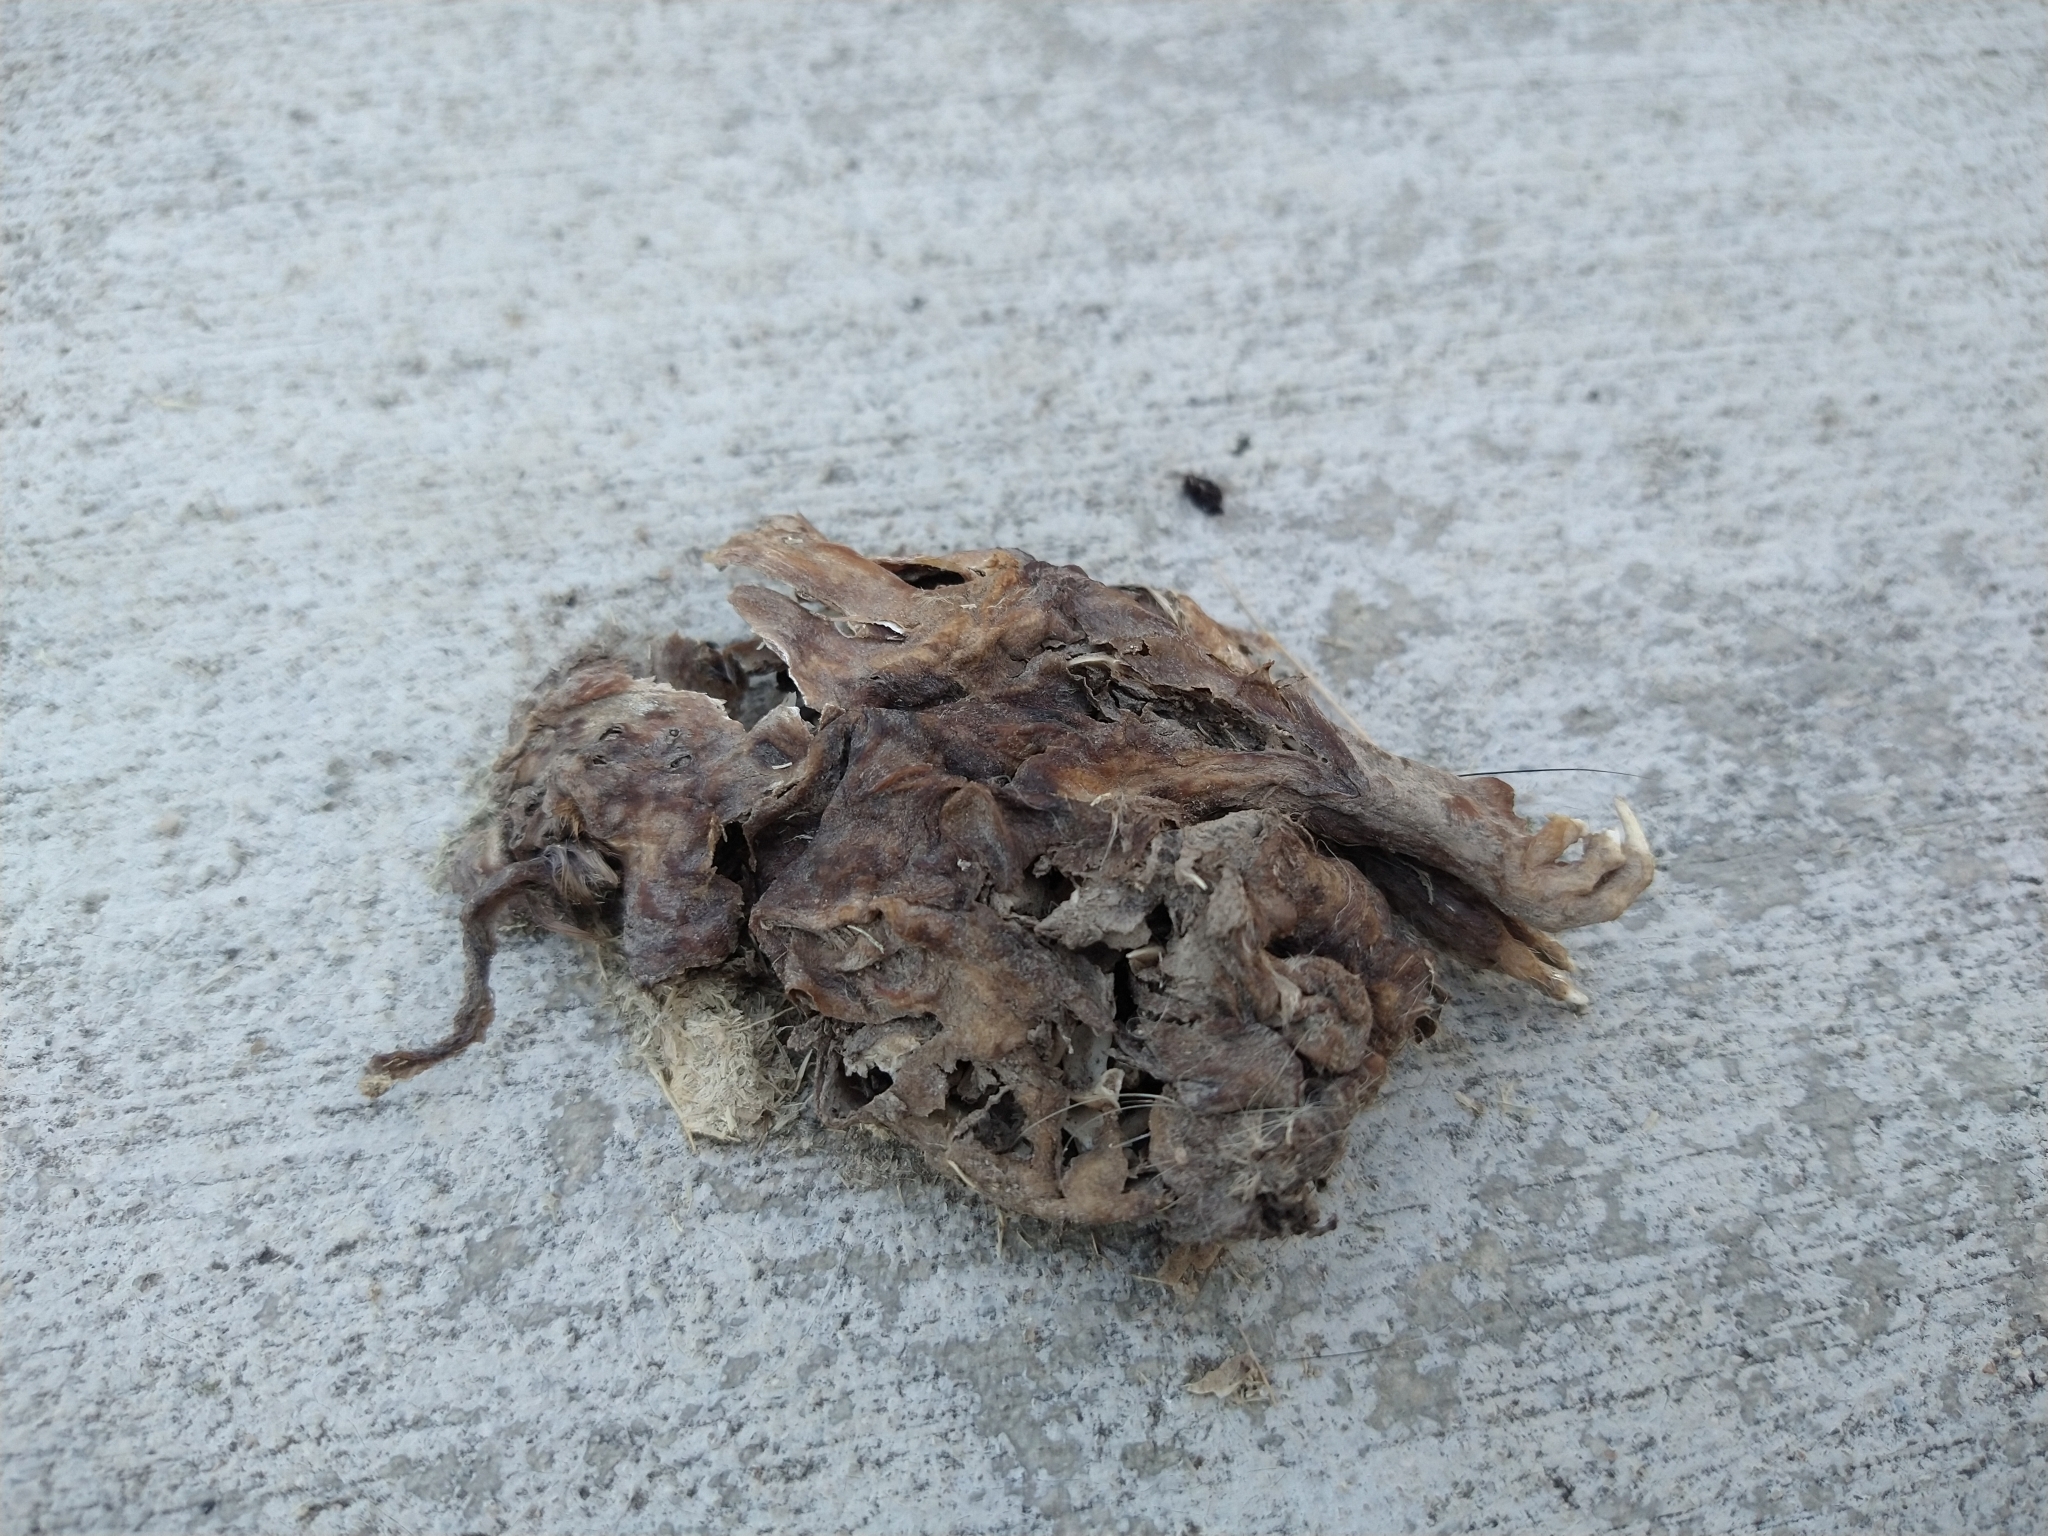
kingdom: Animalia
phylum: Chordata
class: Mammalia
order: Rodentia
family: Geomyidae
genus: Thomomys
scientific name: Thomomys bottae
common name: Botta's pocket gopher
